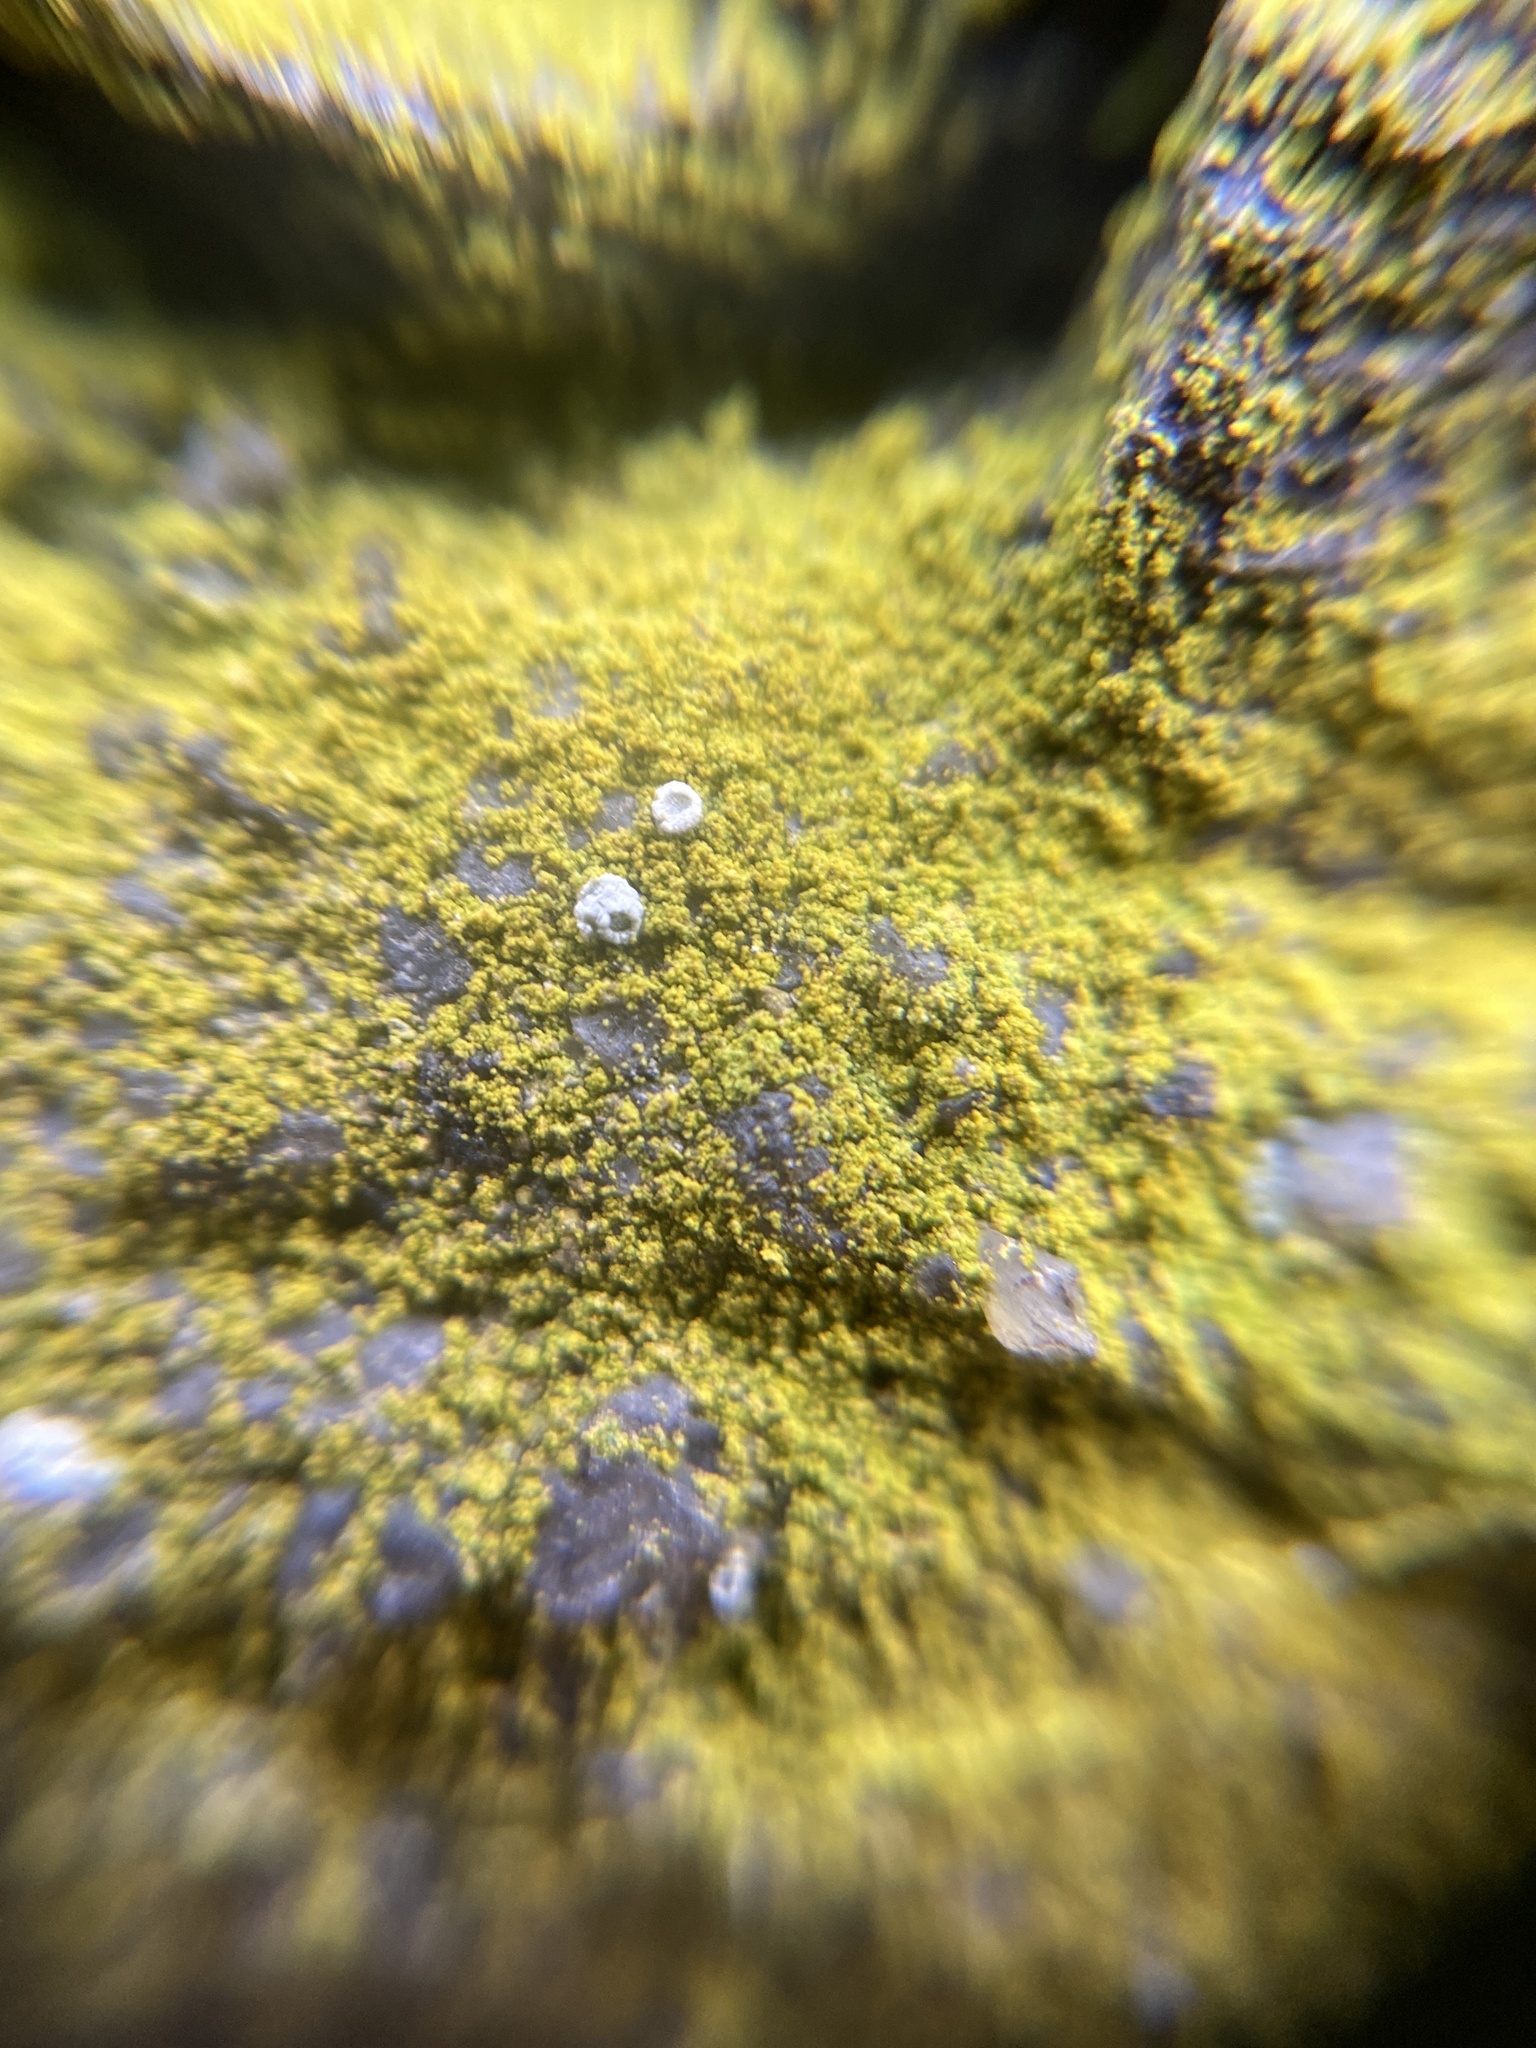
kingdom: Fungi
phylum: Ascomycota
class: Lecanoromycetes
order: Teloschistales
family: Teloschistaceae
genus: Flavoplaca
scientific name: Flavoplaca
